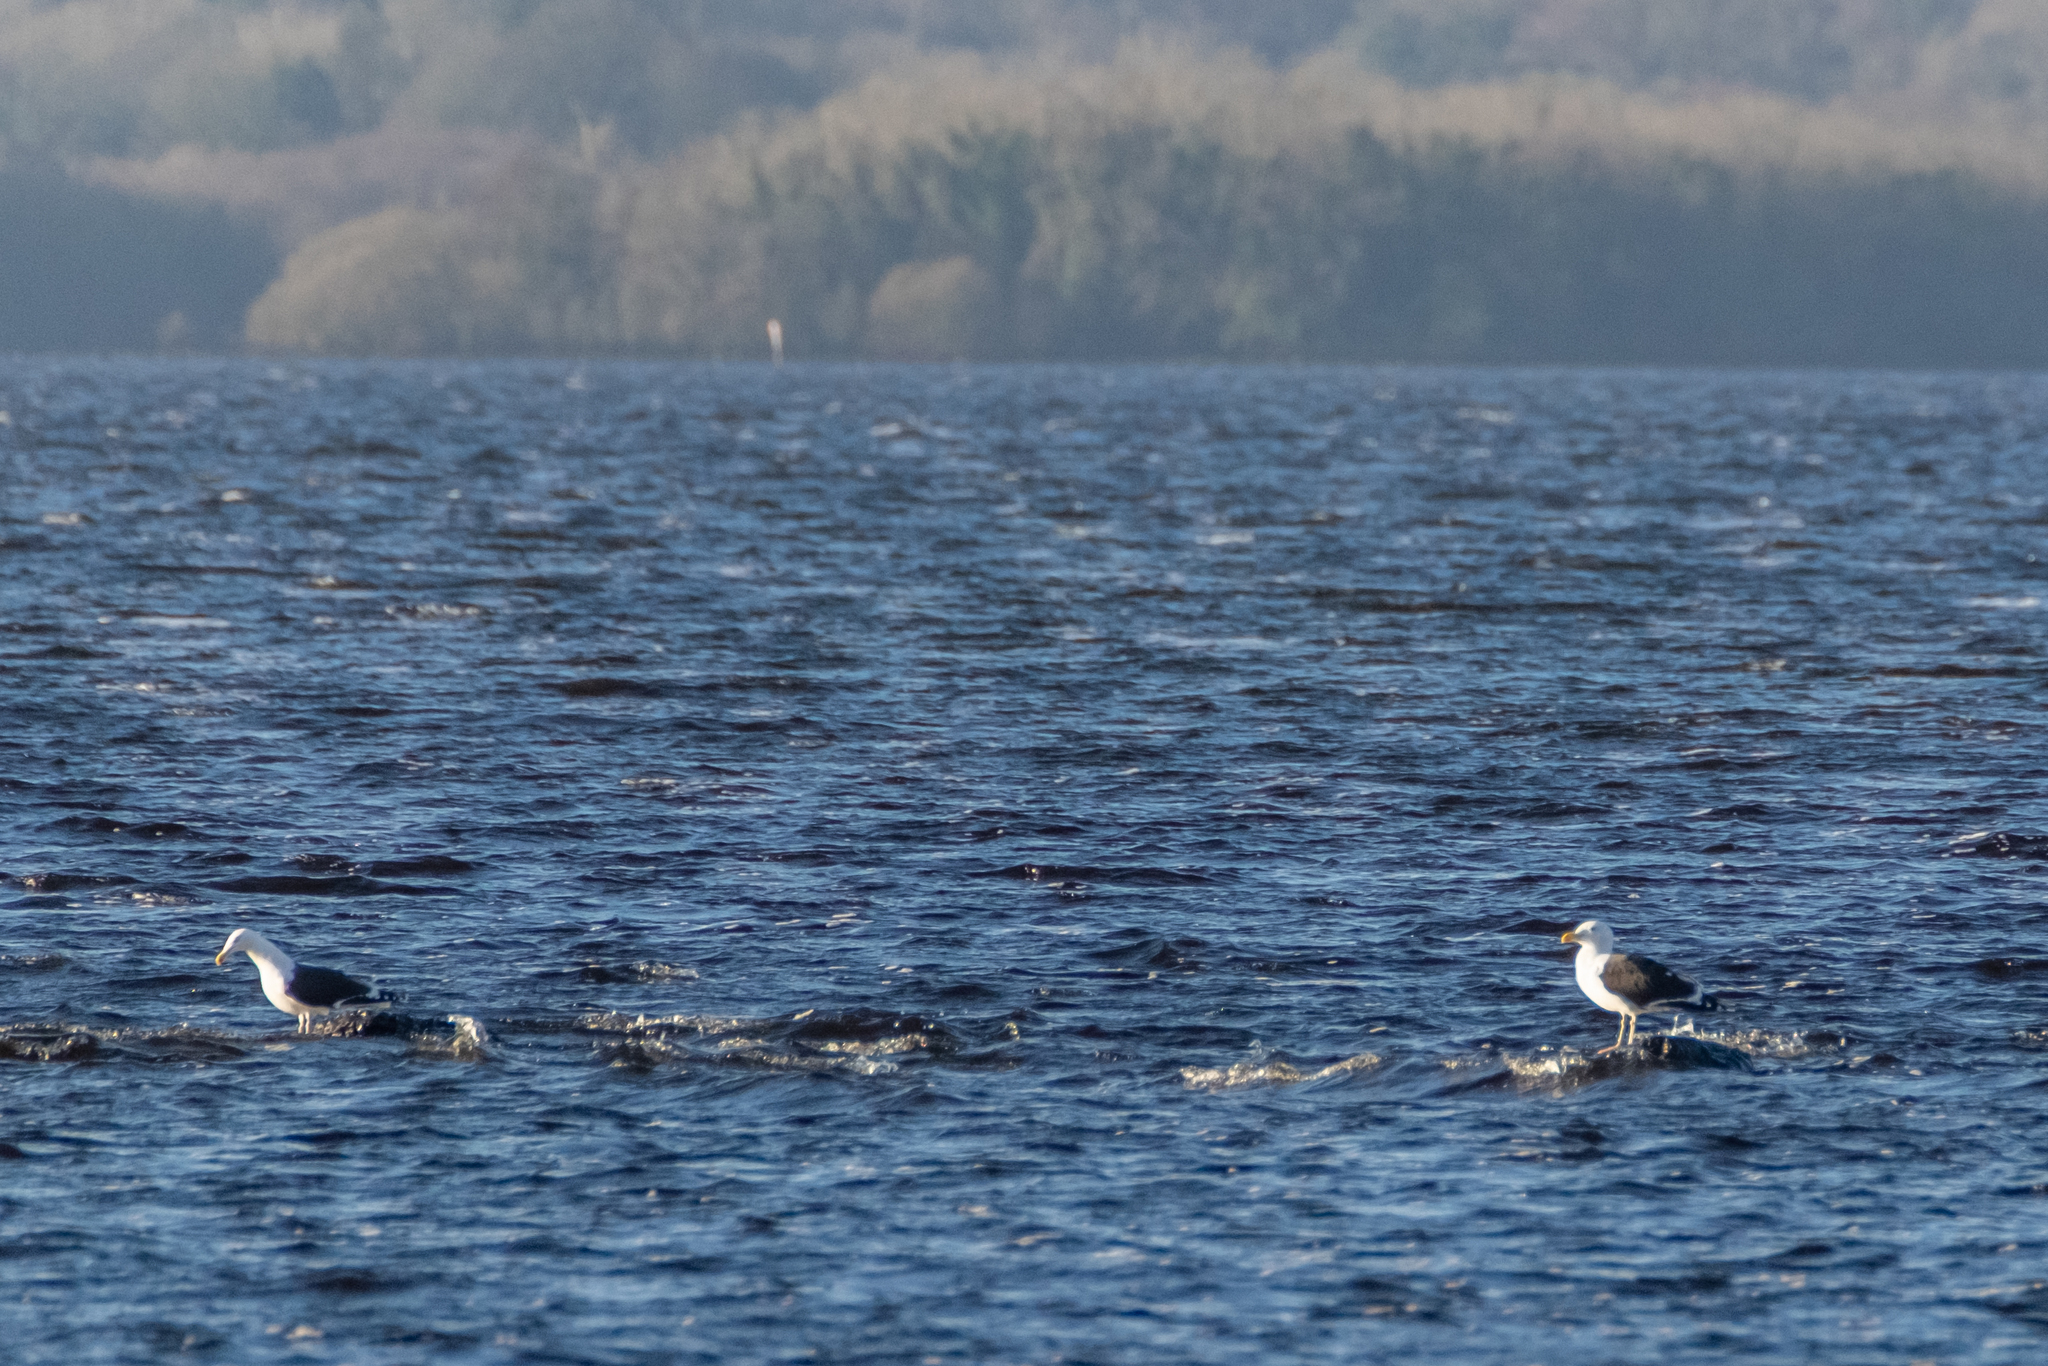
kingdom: Animalia
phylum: Chordata
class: Aves
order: Charadriiformes
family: Laridae
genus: Larus
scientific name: Larus marinus
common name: Great black-backed gull
